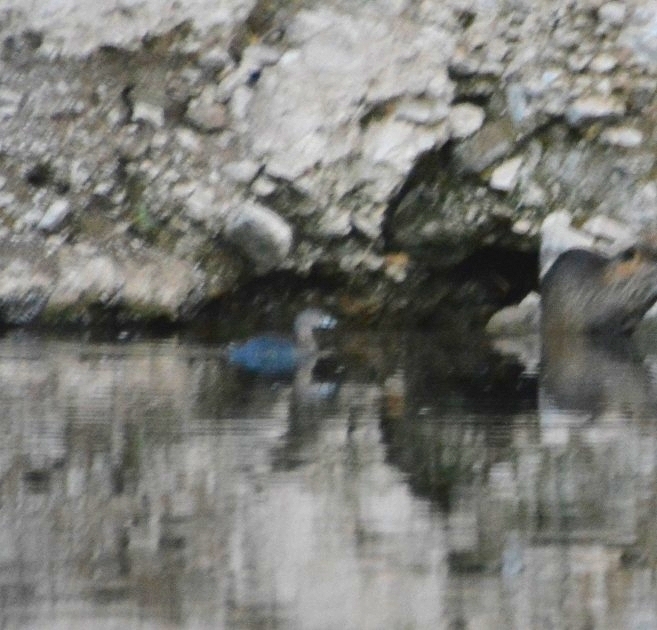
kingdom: Animalia
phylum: Chordata
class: Aves
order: Podicipediformes
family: Podicipedidae
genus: Podilymbus
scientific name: Podilymbus podiceps
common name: Pied-billed grebe
